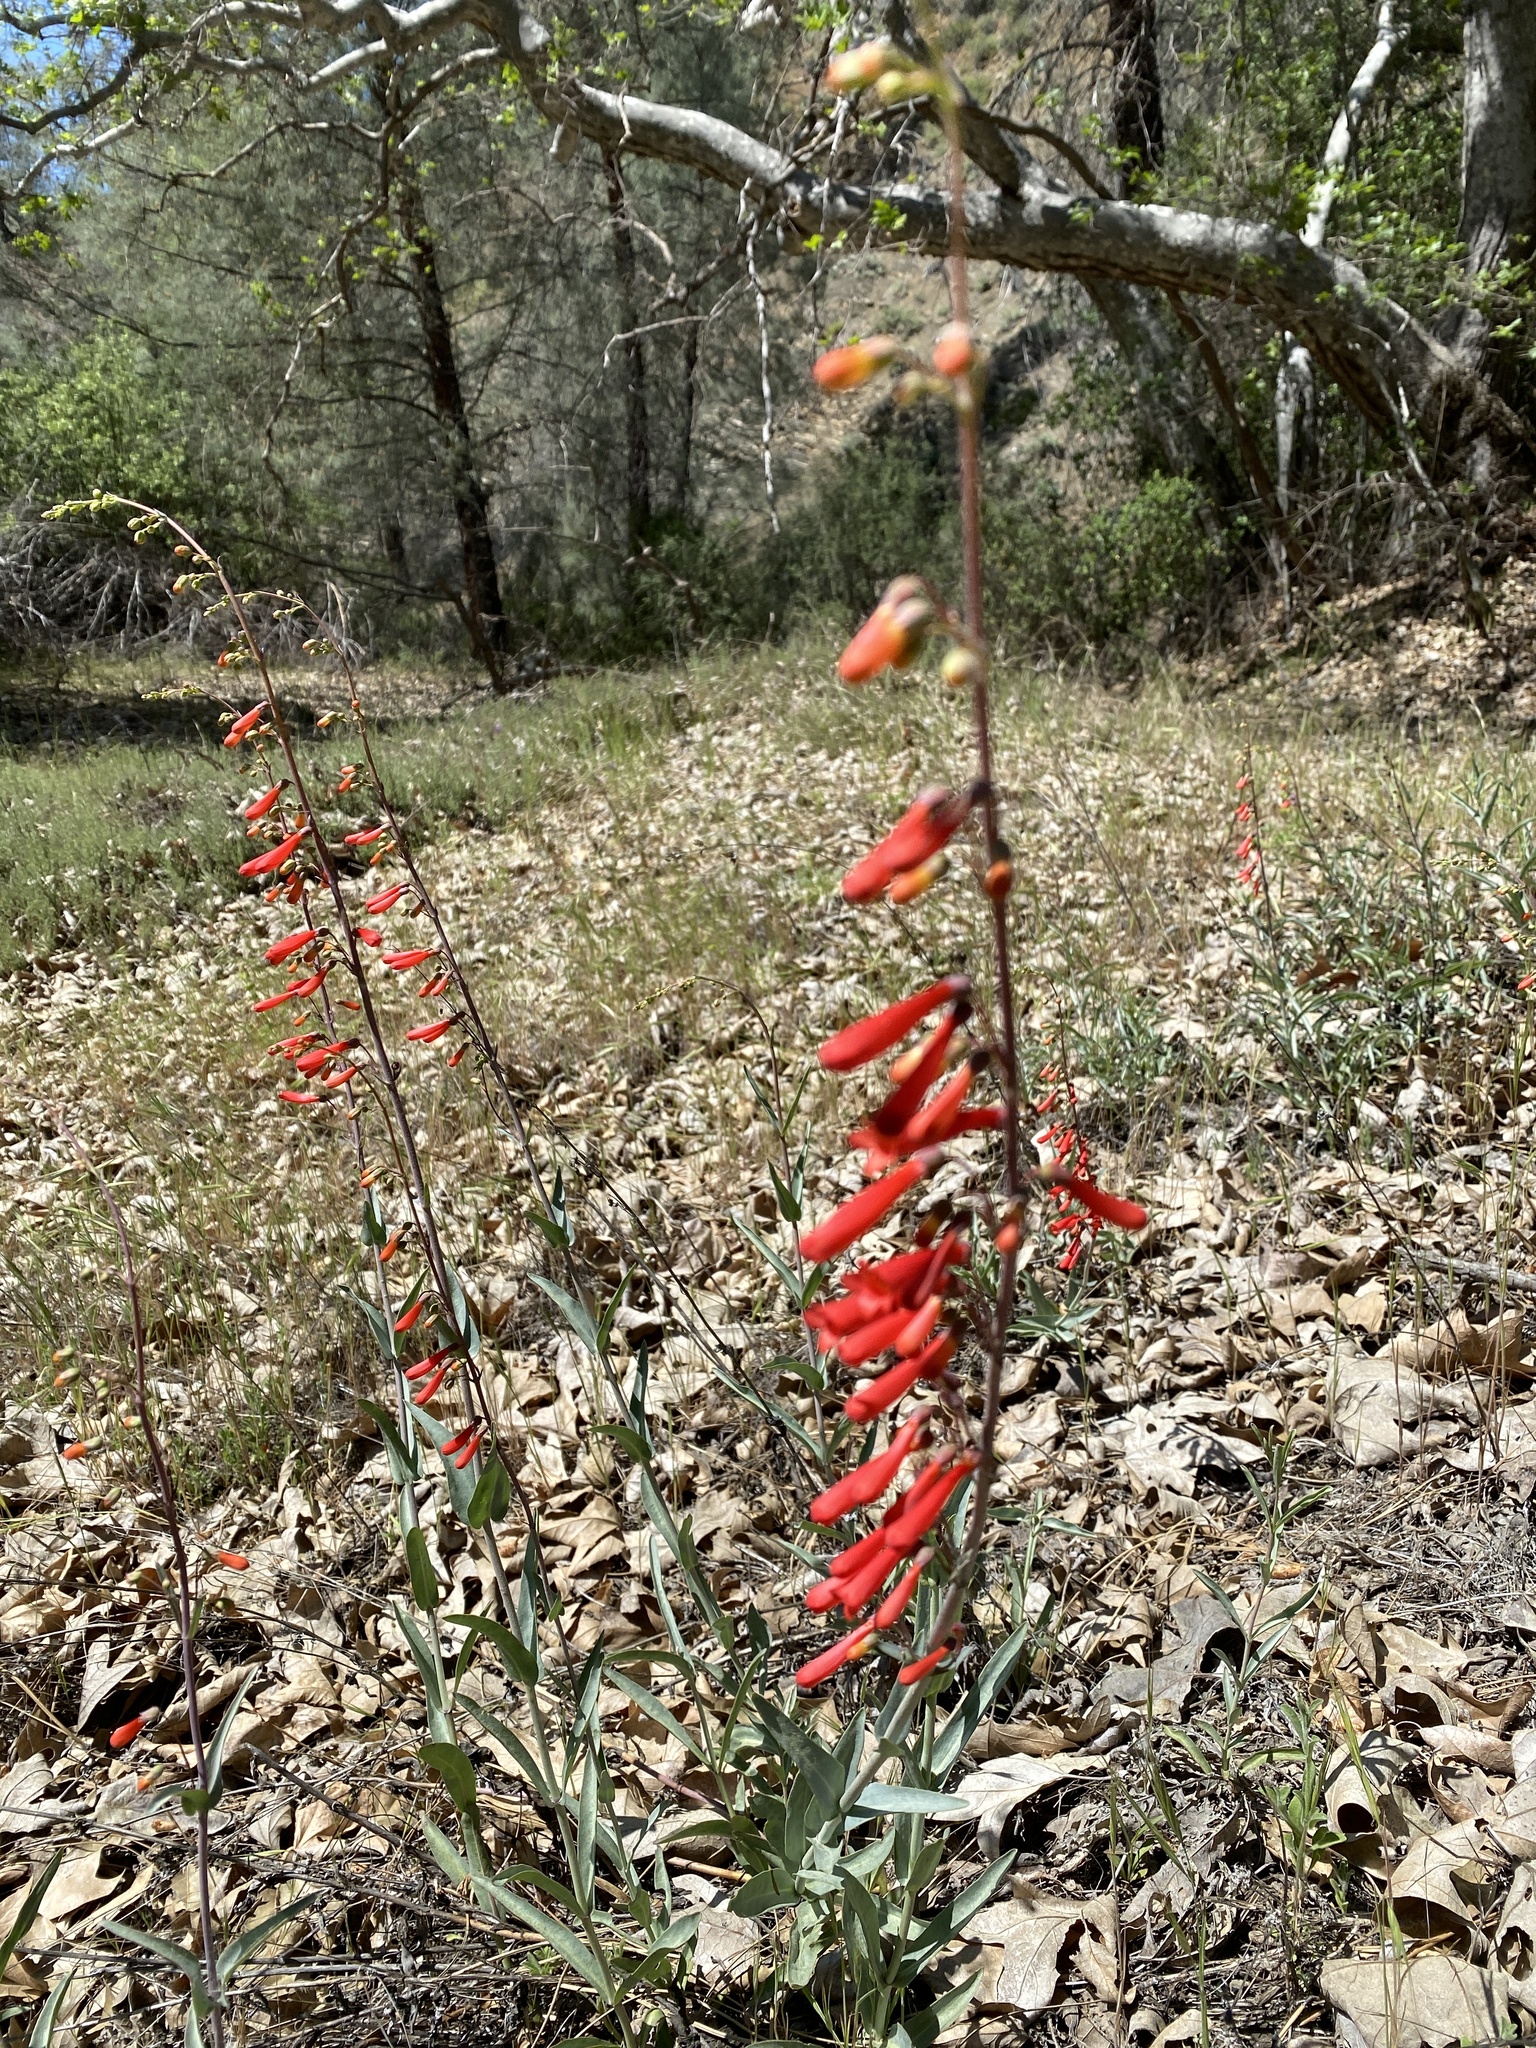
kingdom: Plantae
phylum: Tracheophyta
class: Magnoliopsida
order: Lamiales
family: Plantaginaceae
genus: Penstemon
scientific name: Penstemon centranthifolius
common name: Scarlet bugler
